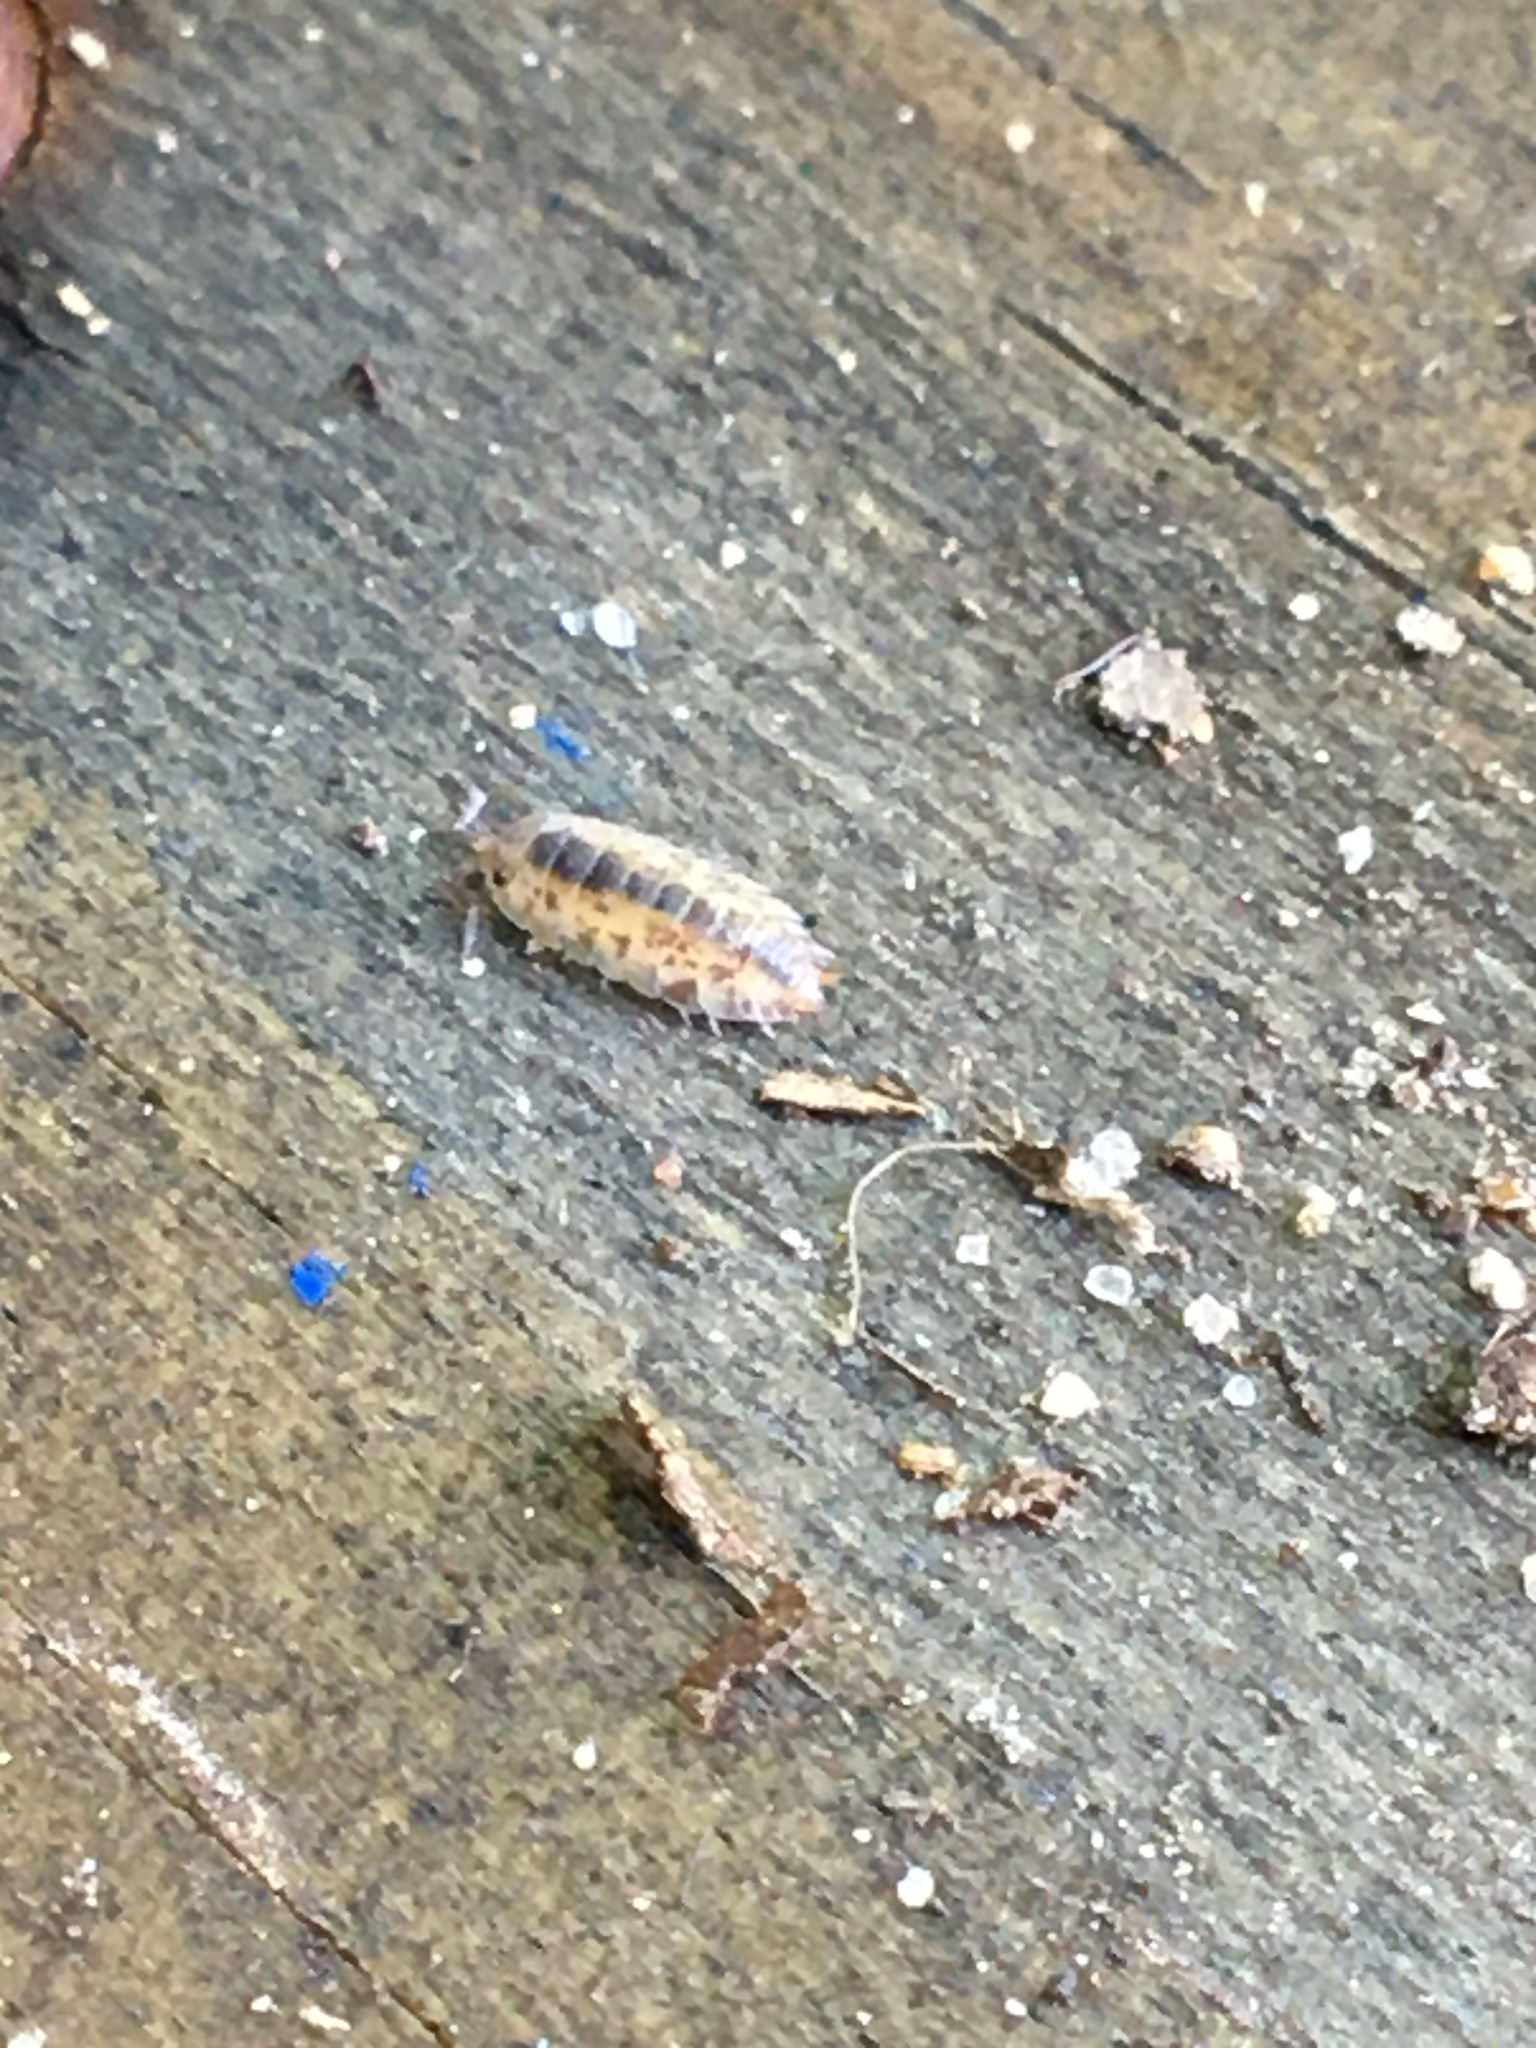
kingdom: Animalia
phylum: Arthropoda
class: Malacostraca
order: Isopoda
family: Oniscidae
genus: Oniscus
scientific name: Oniscus asellus
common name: Common shiny woodlouse
